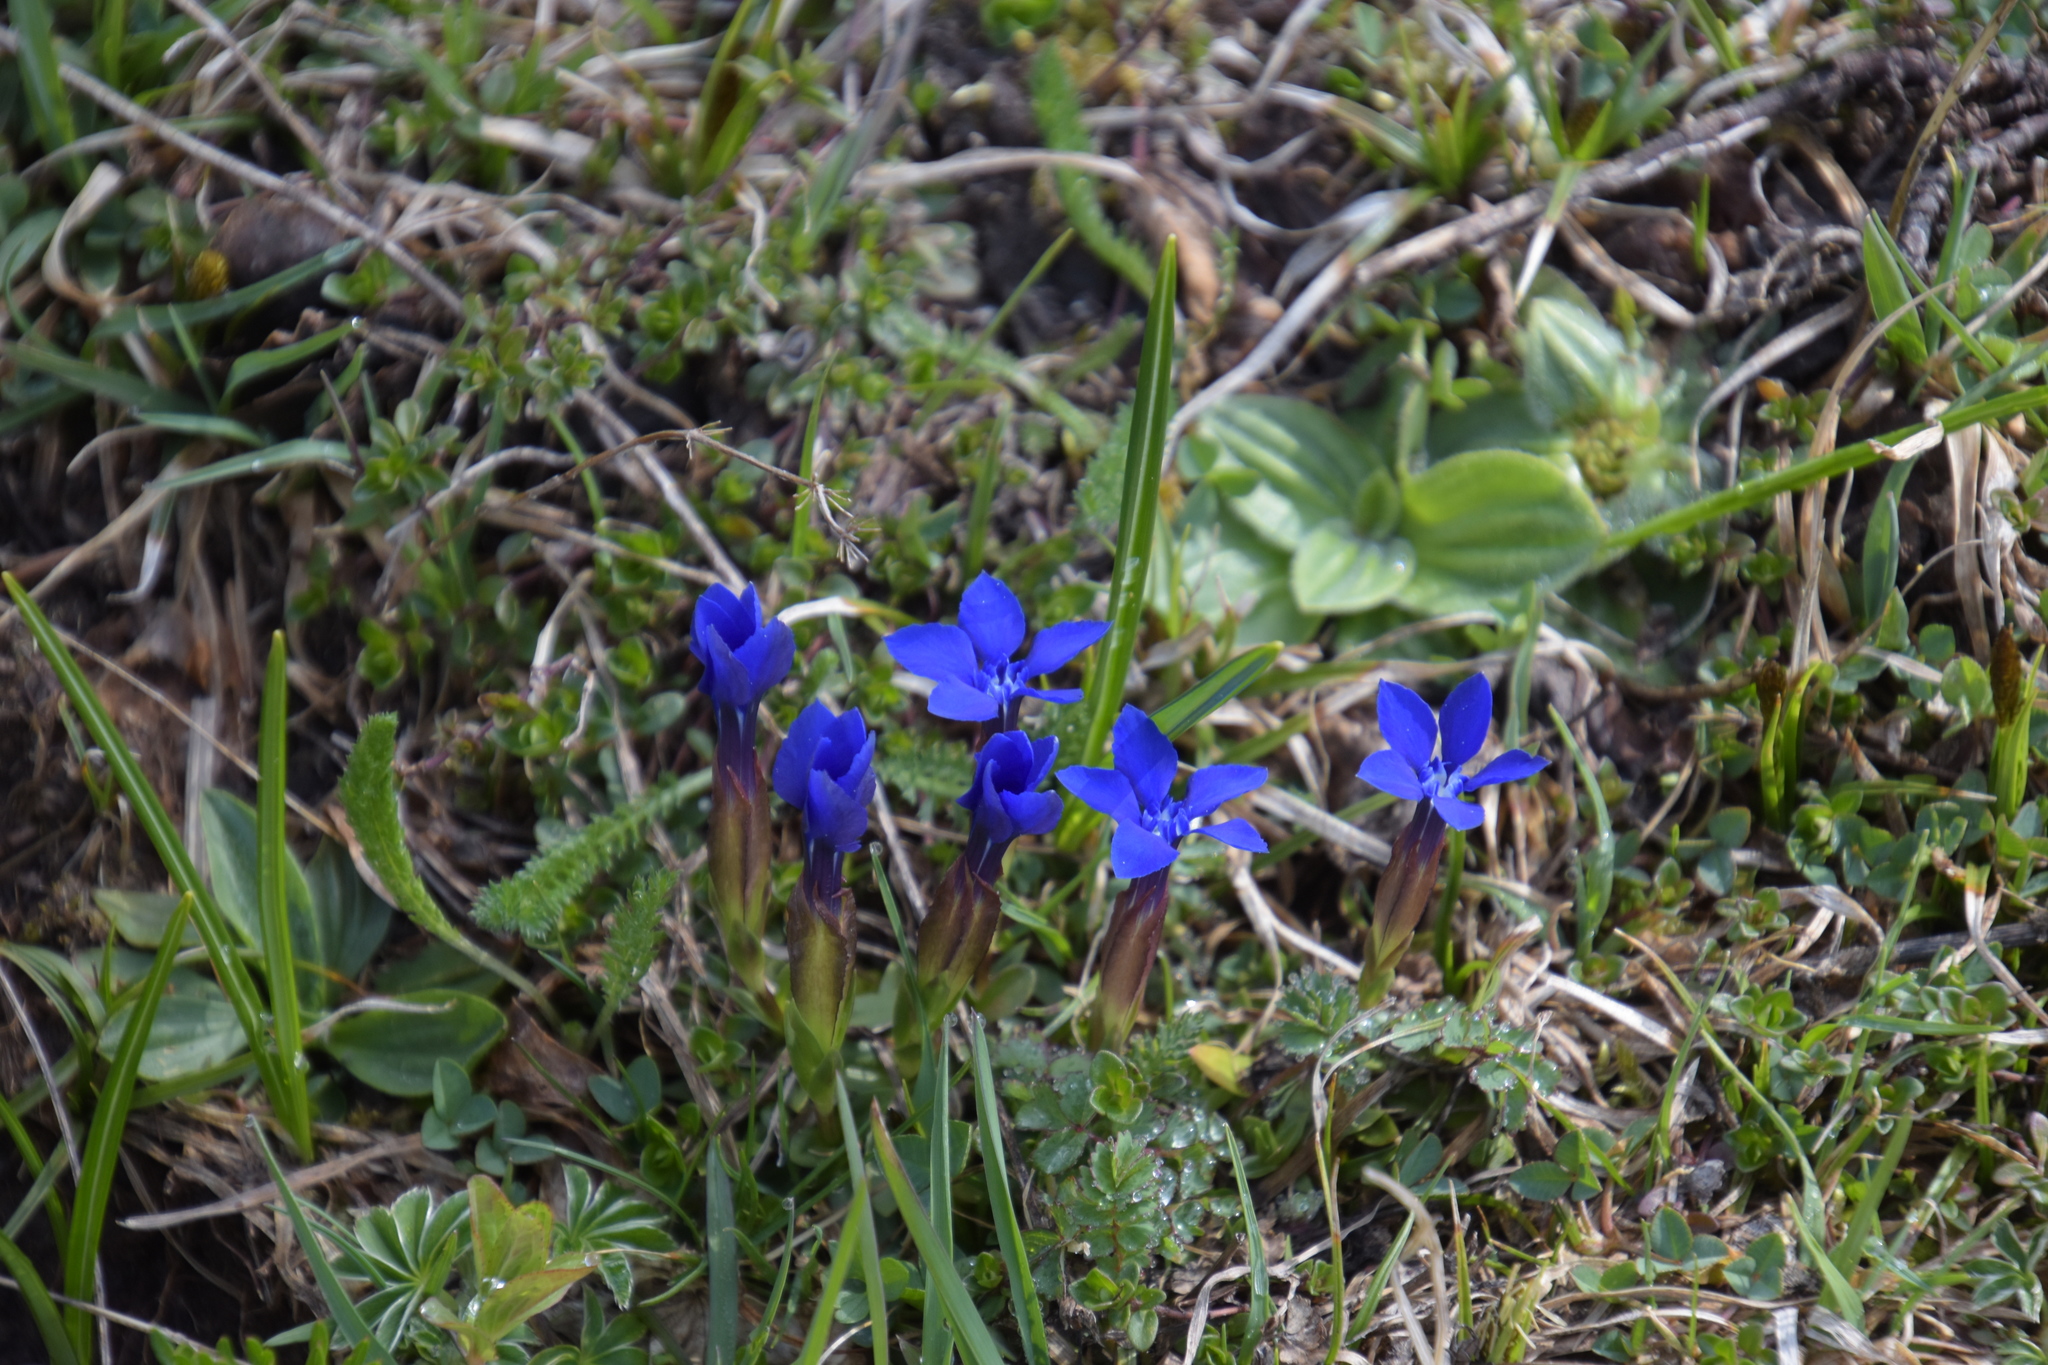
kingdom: Plantae
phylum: Tracheophyta
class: Magnoliopsida
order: Gentianales
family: Gentianaceae
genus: Gentiana
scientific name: Gentiana verna
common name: Spring gentian
